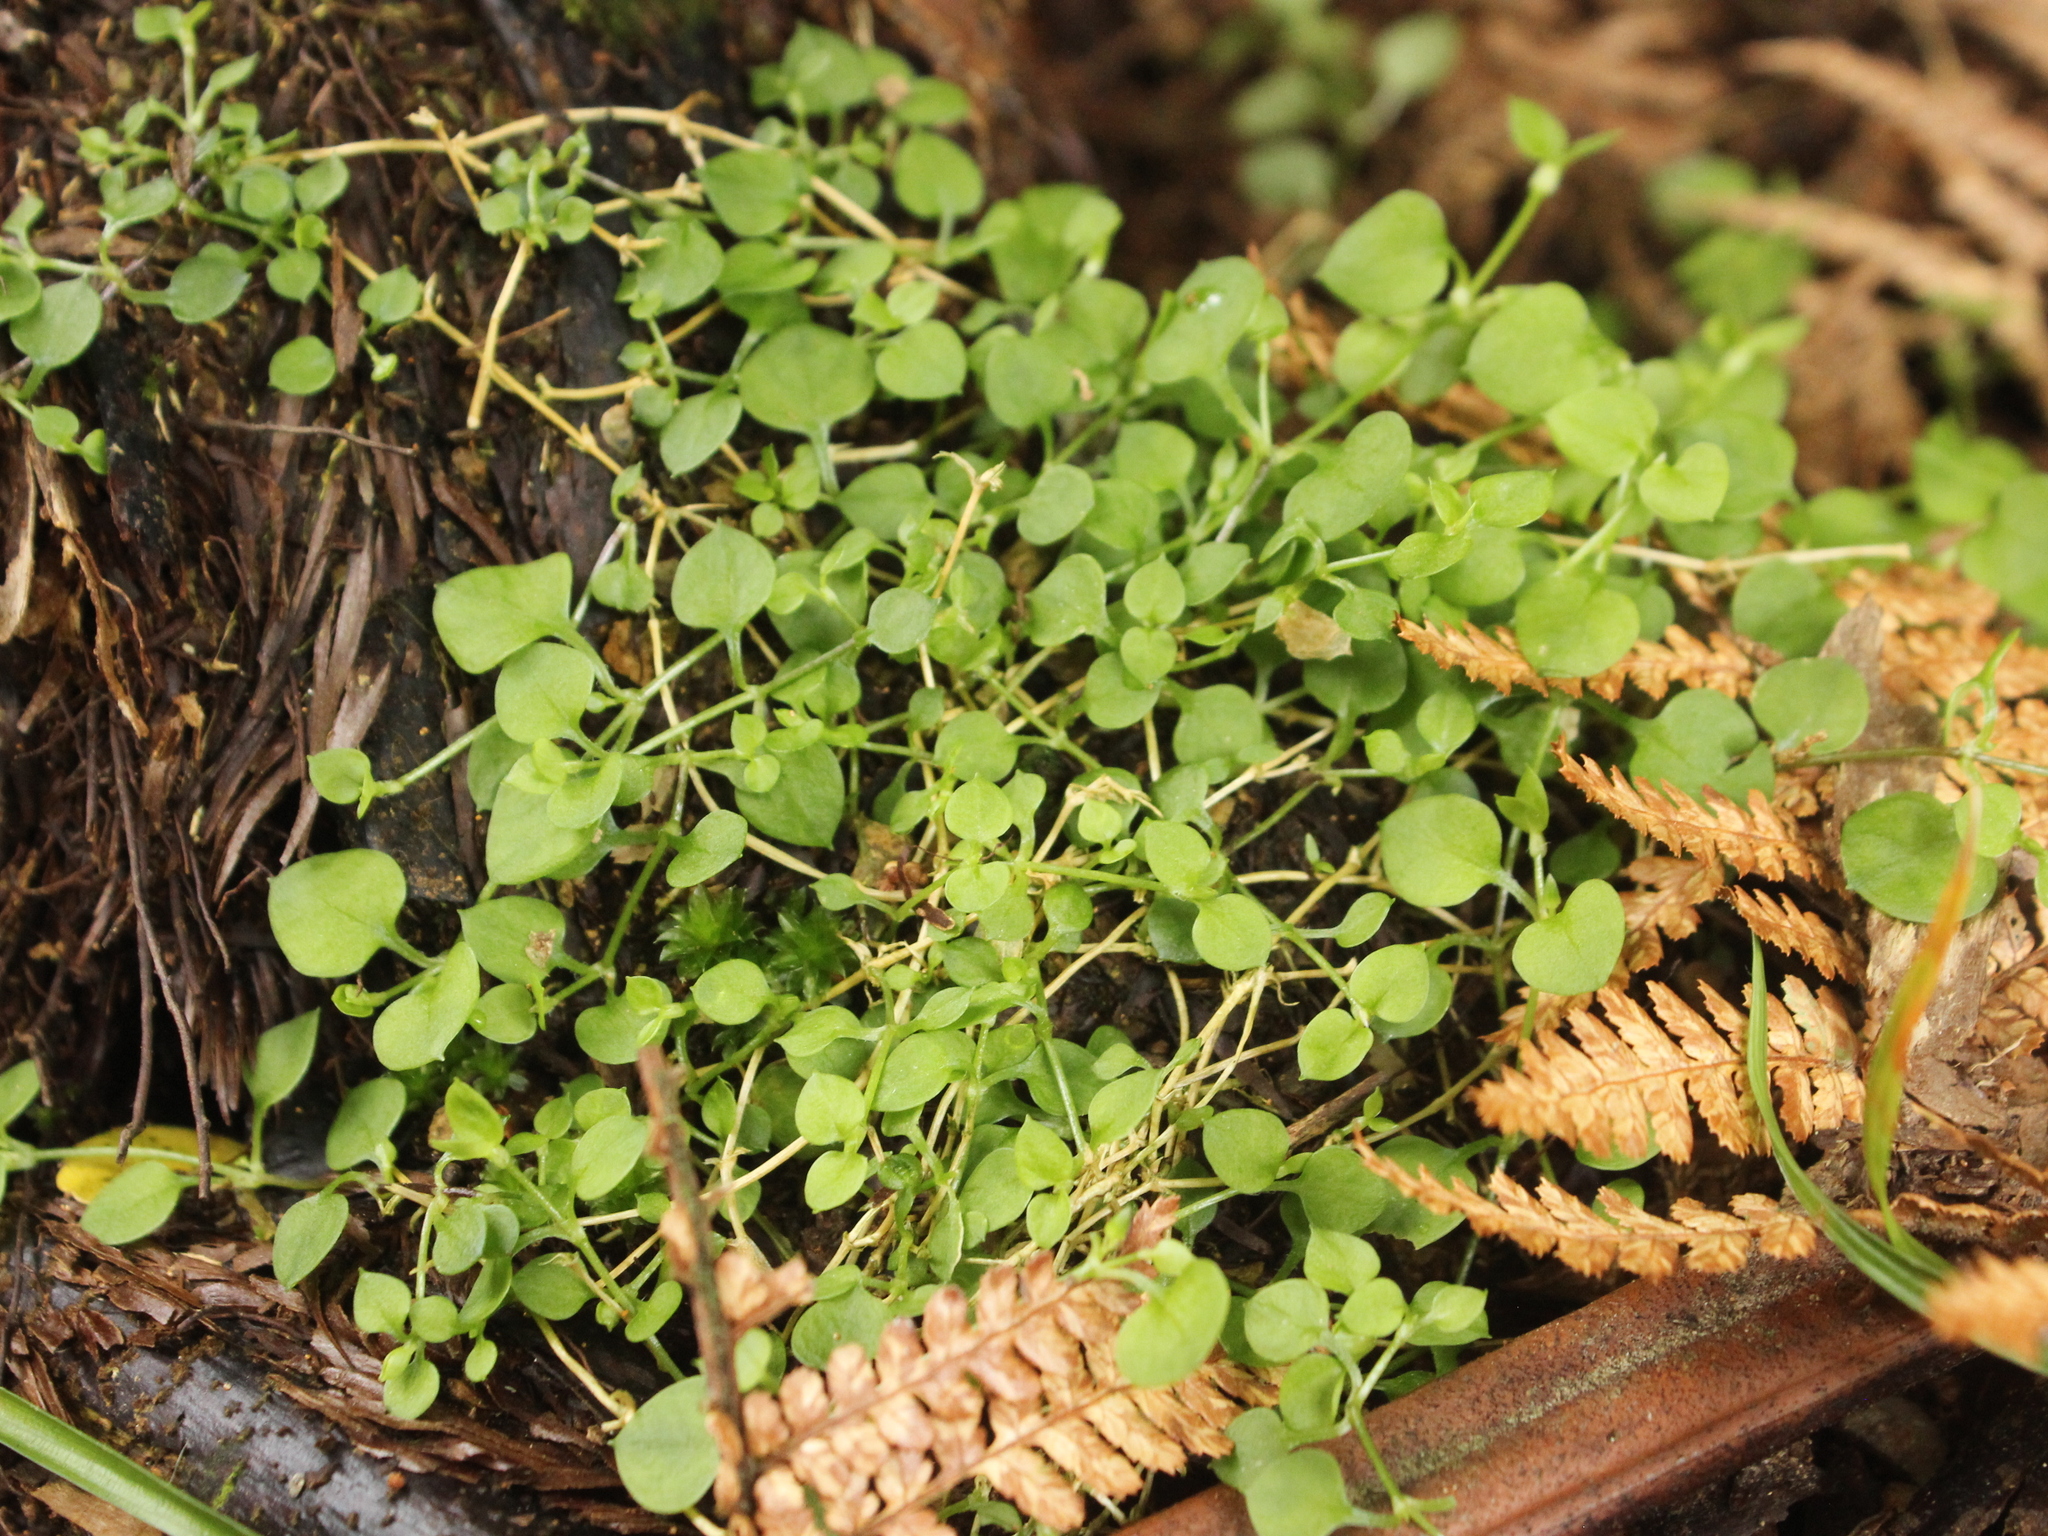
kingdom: Plantae
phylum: Tracheophyta
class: Magnoliopsida
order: Caryophyllales
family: Caryophyllaceae
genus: Stellaria
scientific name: Stellaria parviflora
